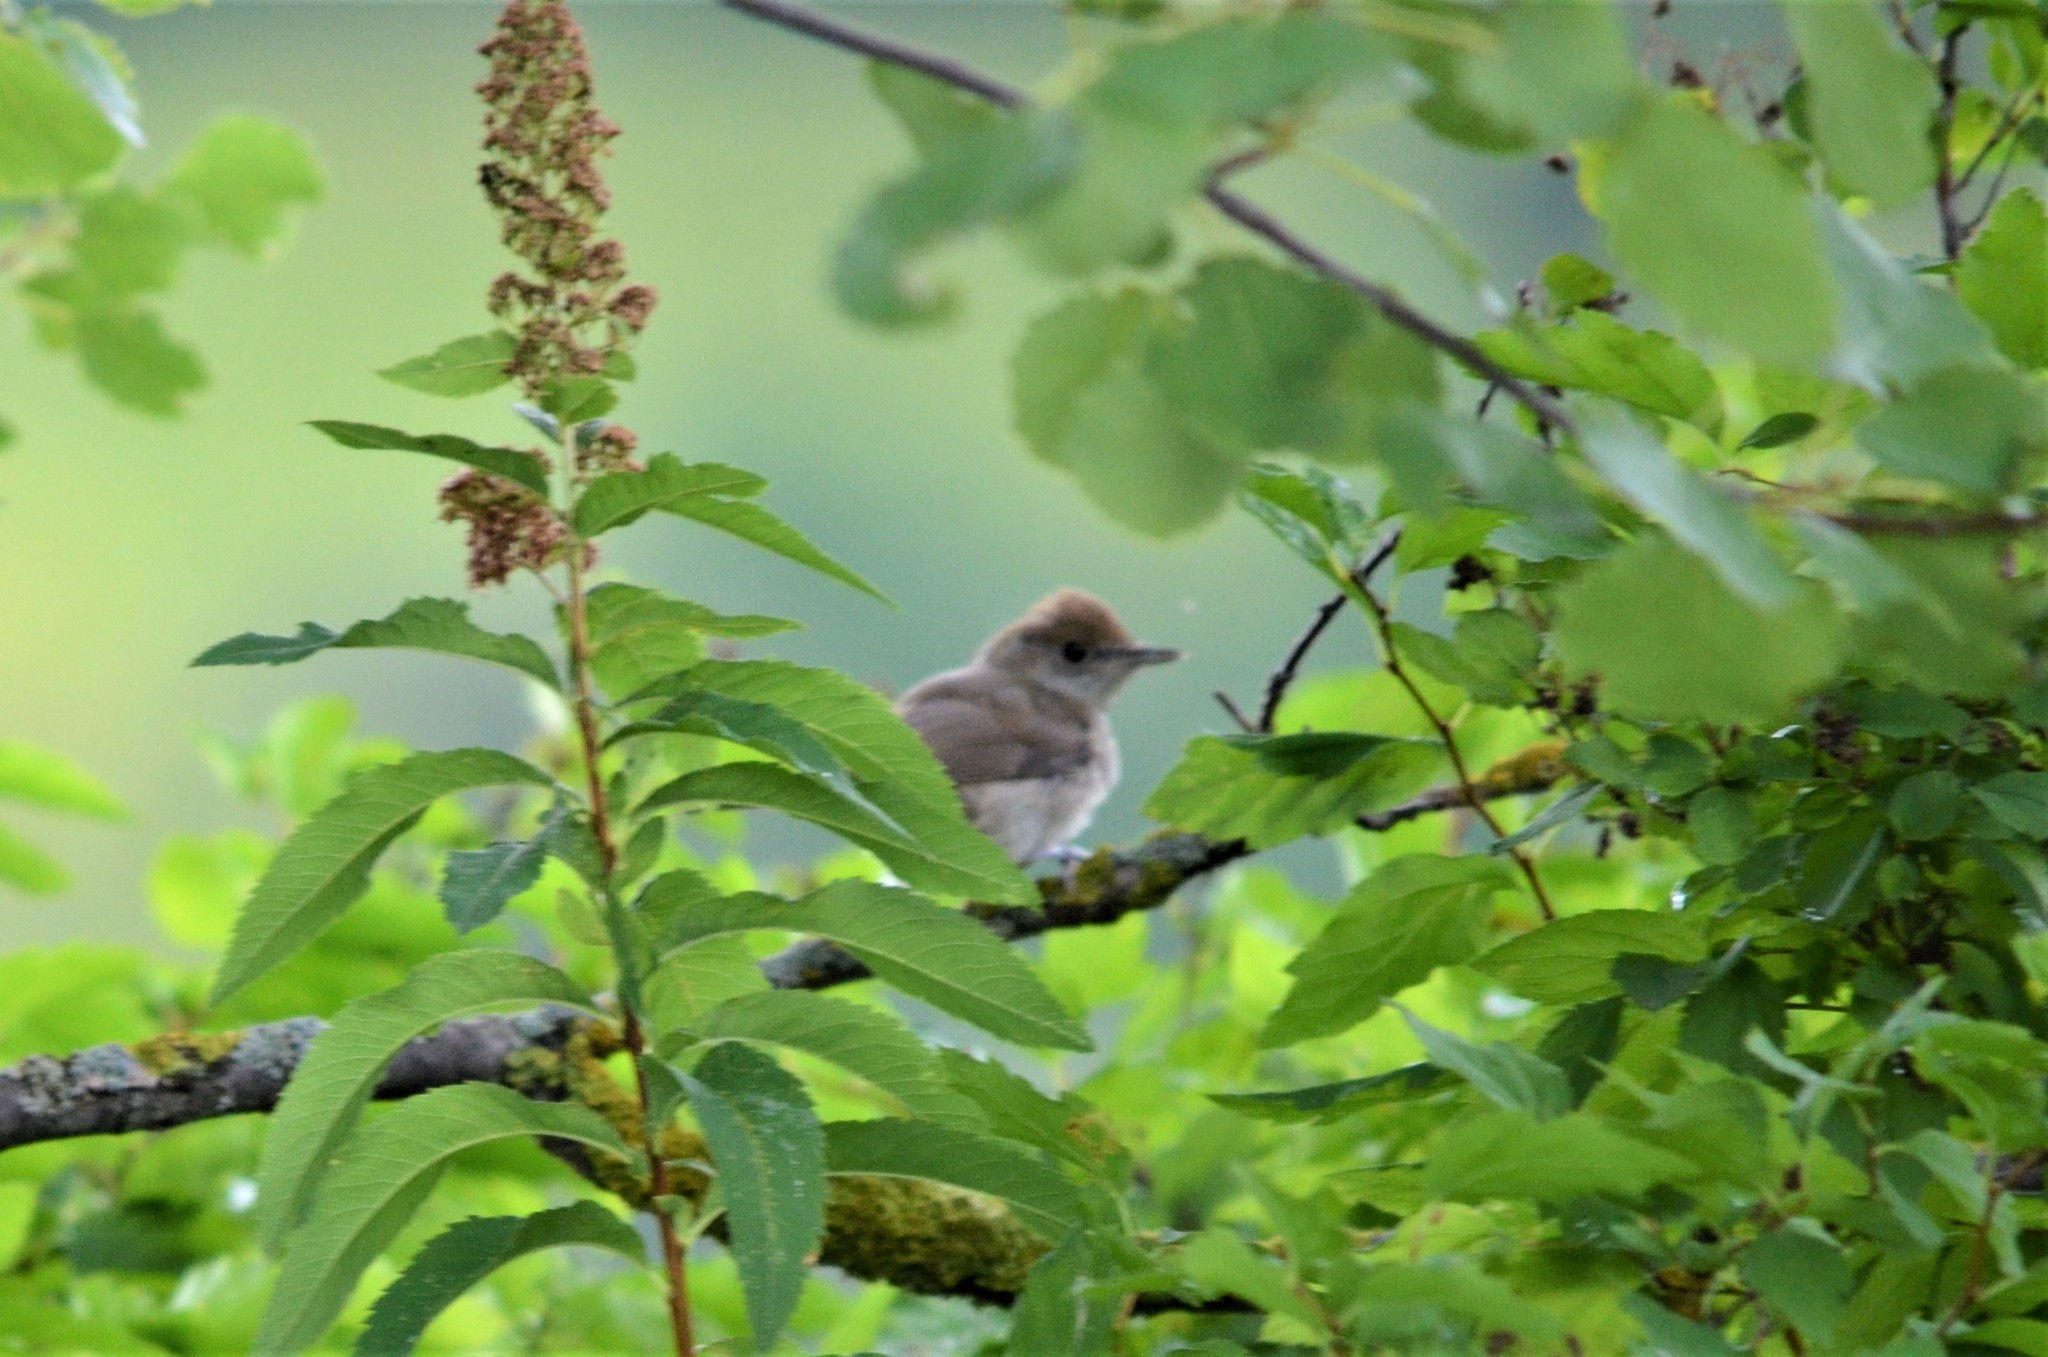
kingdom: Animalia
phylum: Chordata
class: Aves
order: Passeriformes
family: Sylviidae
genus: Sylvia
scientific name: Sylvia atricapilla
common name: Eurasian blackcap
